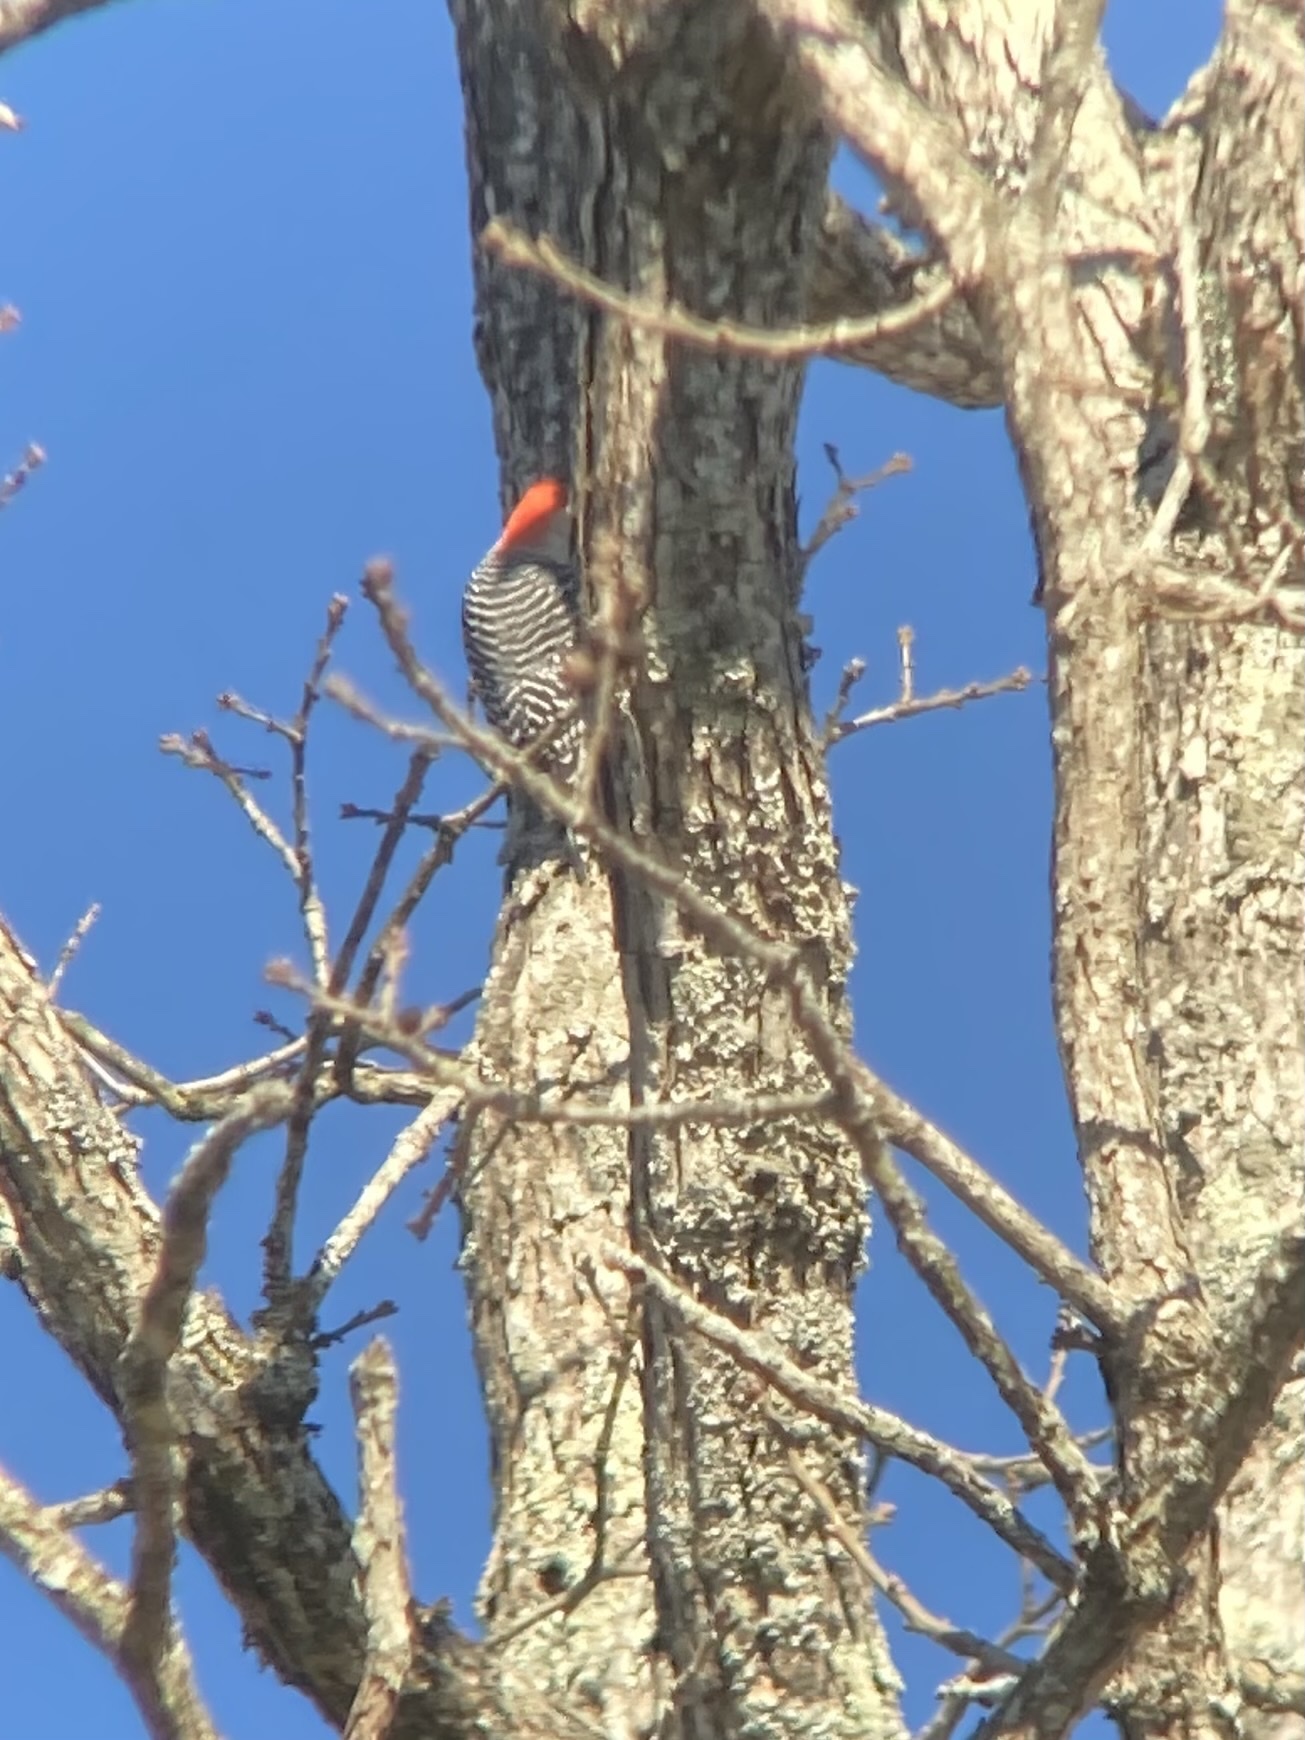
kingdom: Animalia
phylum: Chordata
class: Aves
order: Piciformes
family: Picidae
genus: Melanerpes
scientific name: Melanerpes carolinus
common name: Red-bellied woodpecker
